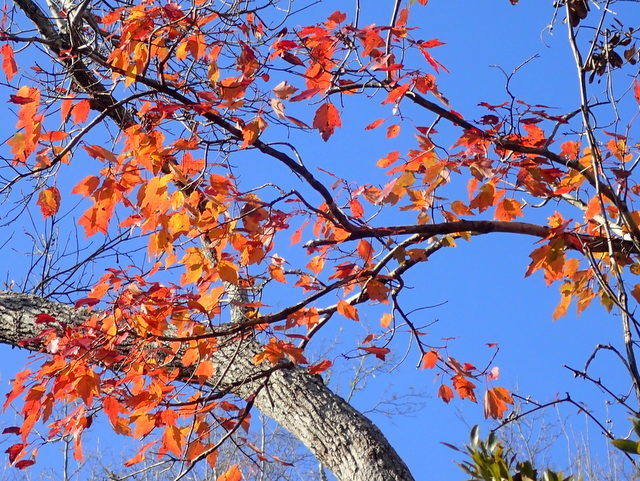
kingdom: Plantae
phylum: Tracheophyta
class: Magnoliopsida
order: Sapindales
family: Sapindaceae
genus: Acer
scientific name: Acer rubrum
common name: Red maple
